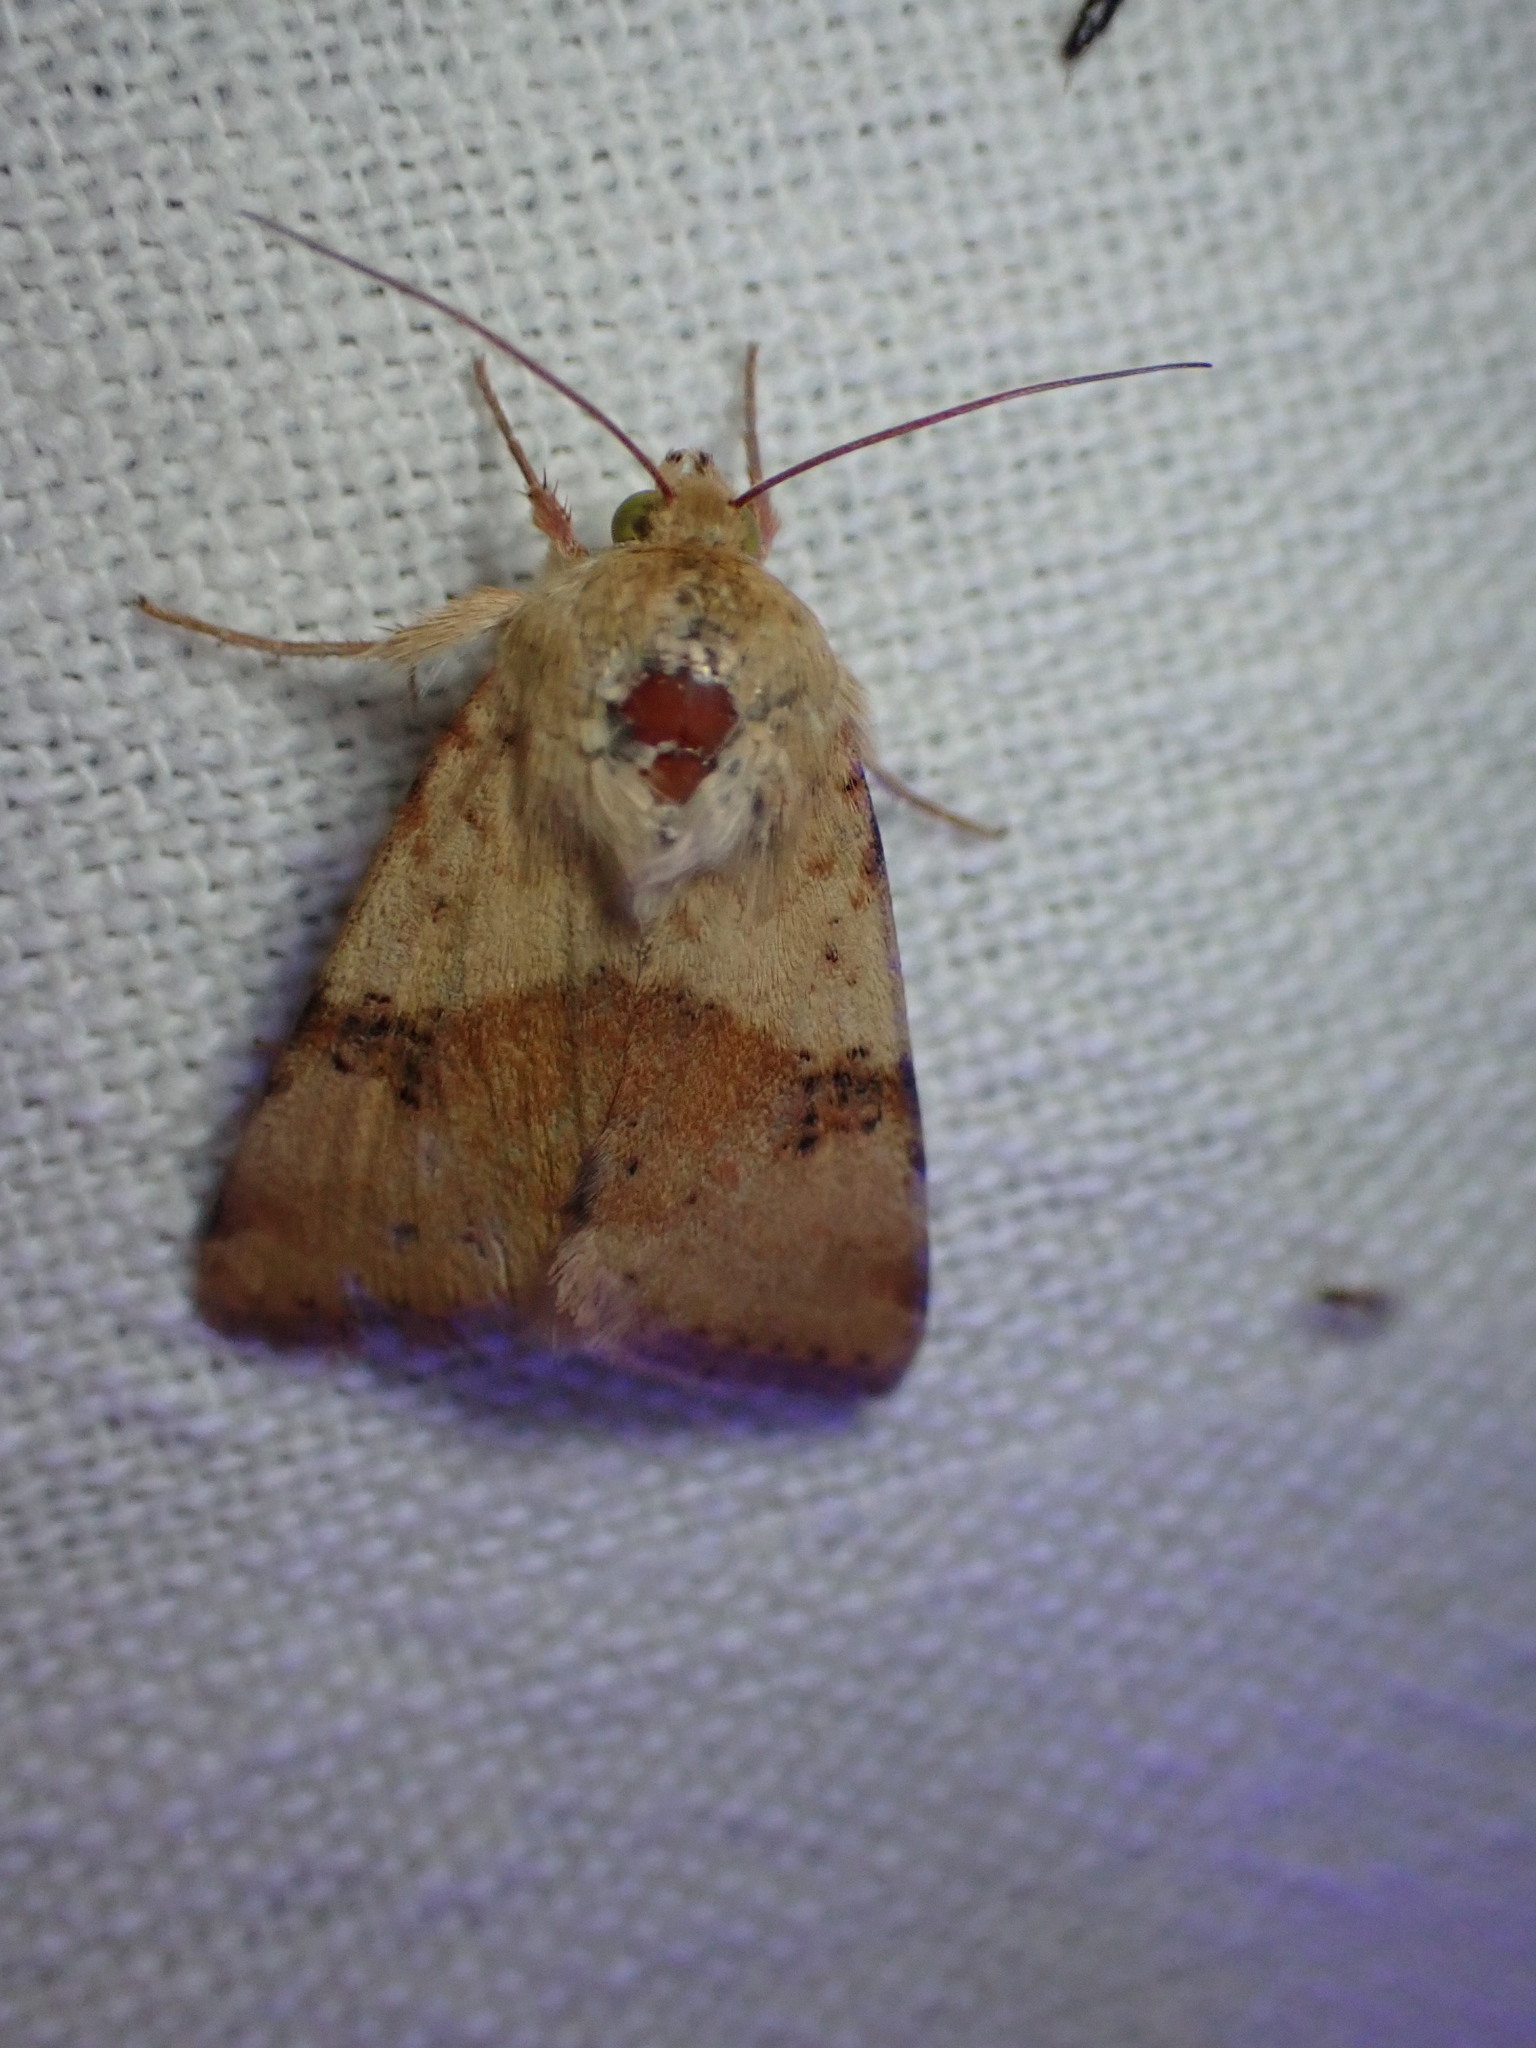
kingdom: Animalia
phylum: Arthropoda
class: Insecta
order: Lepidoptera
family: Noctuidae
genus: Heliothis
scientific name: Heliothis viriplaca
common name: Marbled clover
